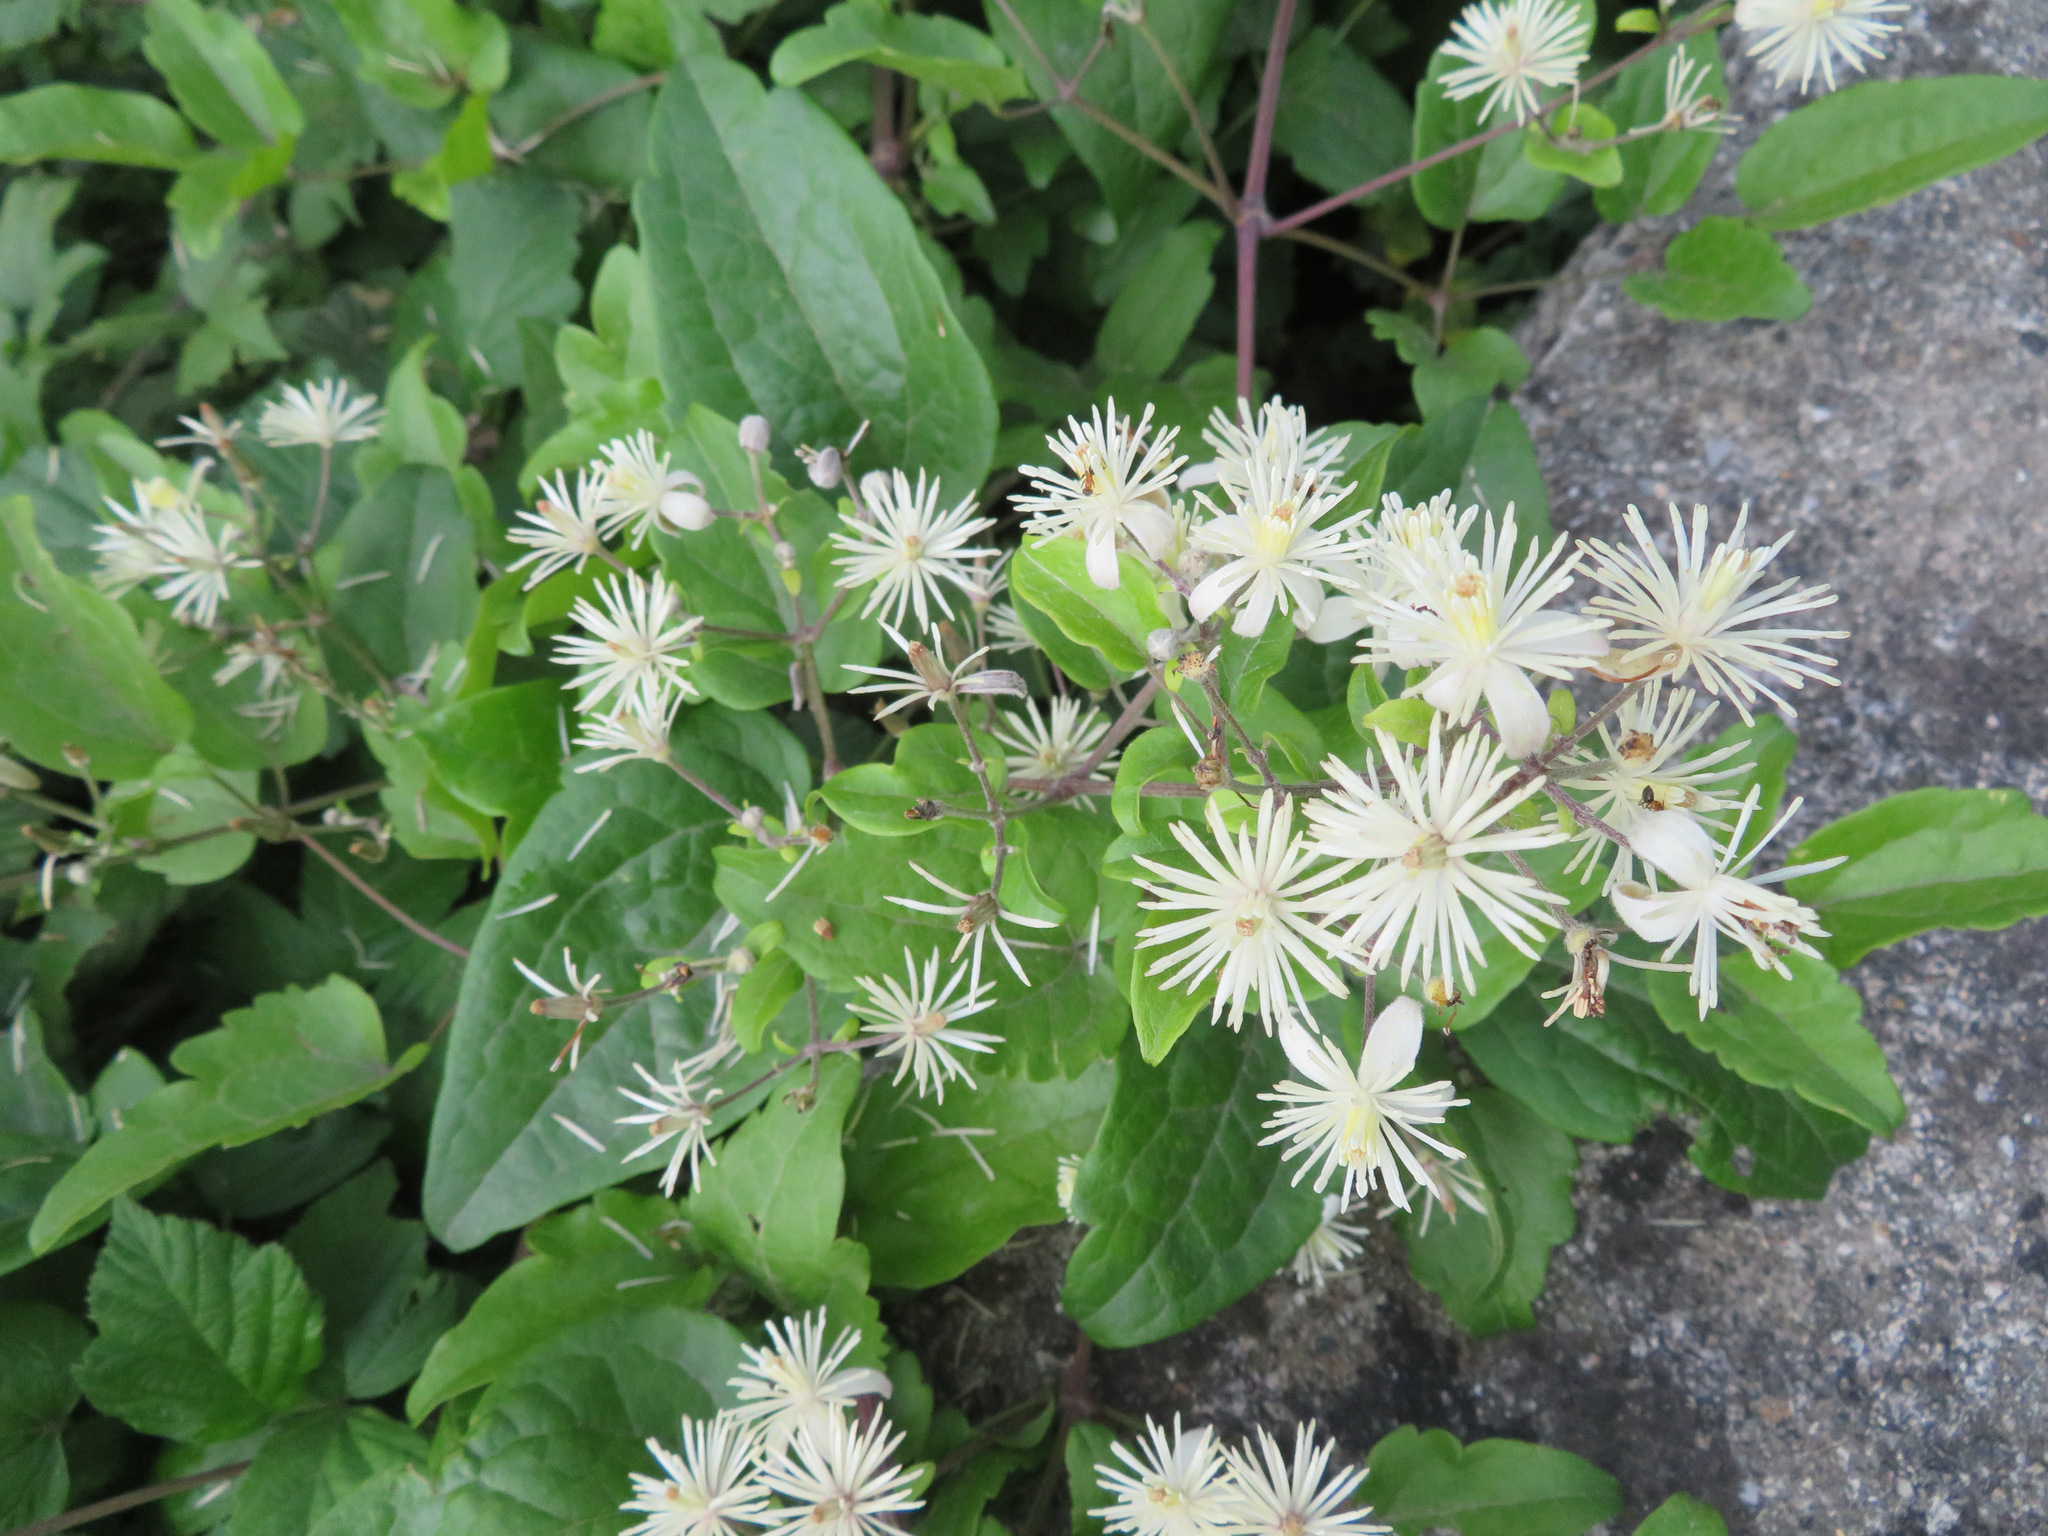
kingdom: Plantae
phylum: Tracheophyta
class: Magnoliopsida
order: Ranunculales
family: Ranunculaceae
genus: Clematis
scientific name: Clematis vitalba
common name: Evergreen clematis
